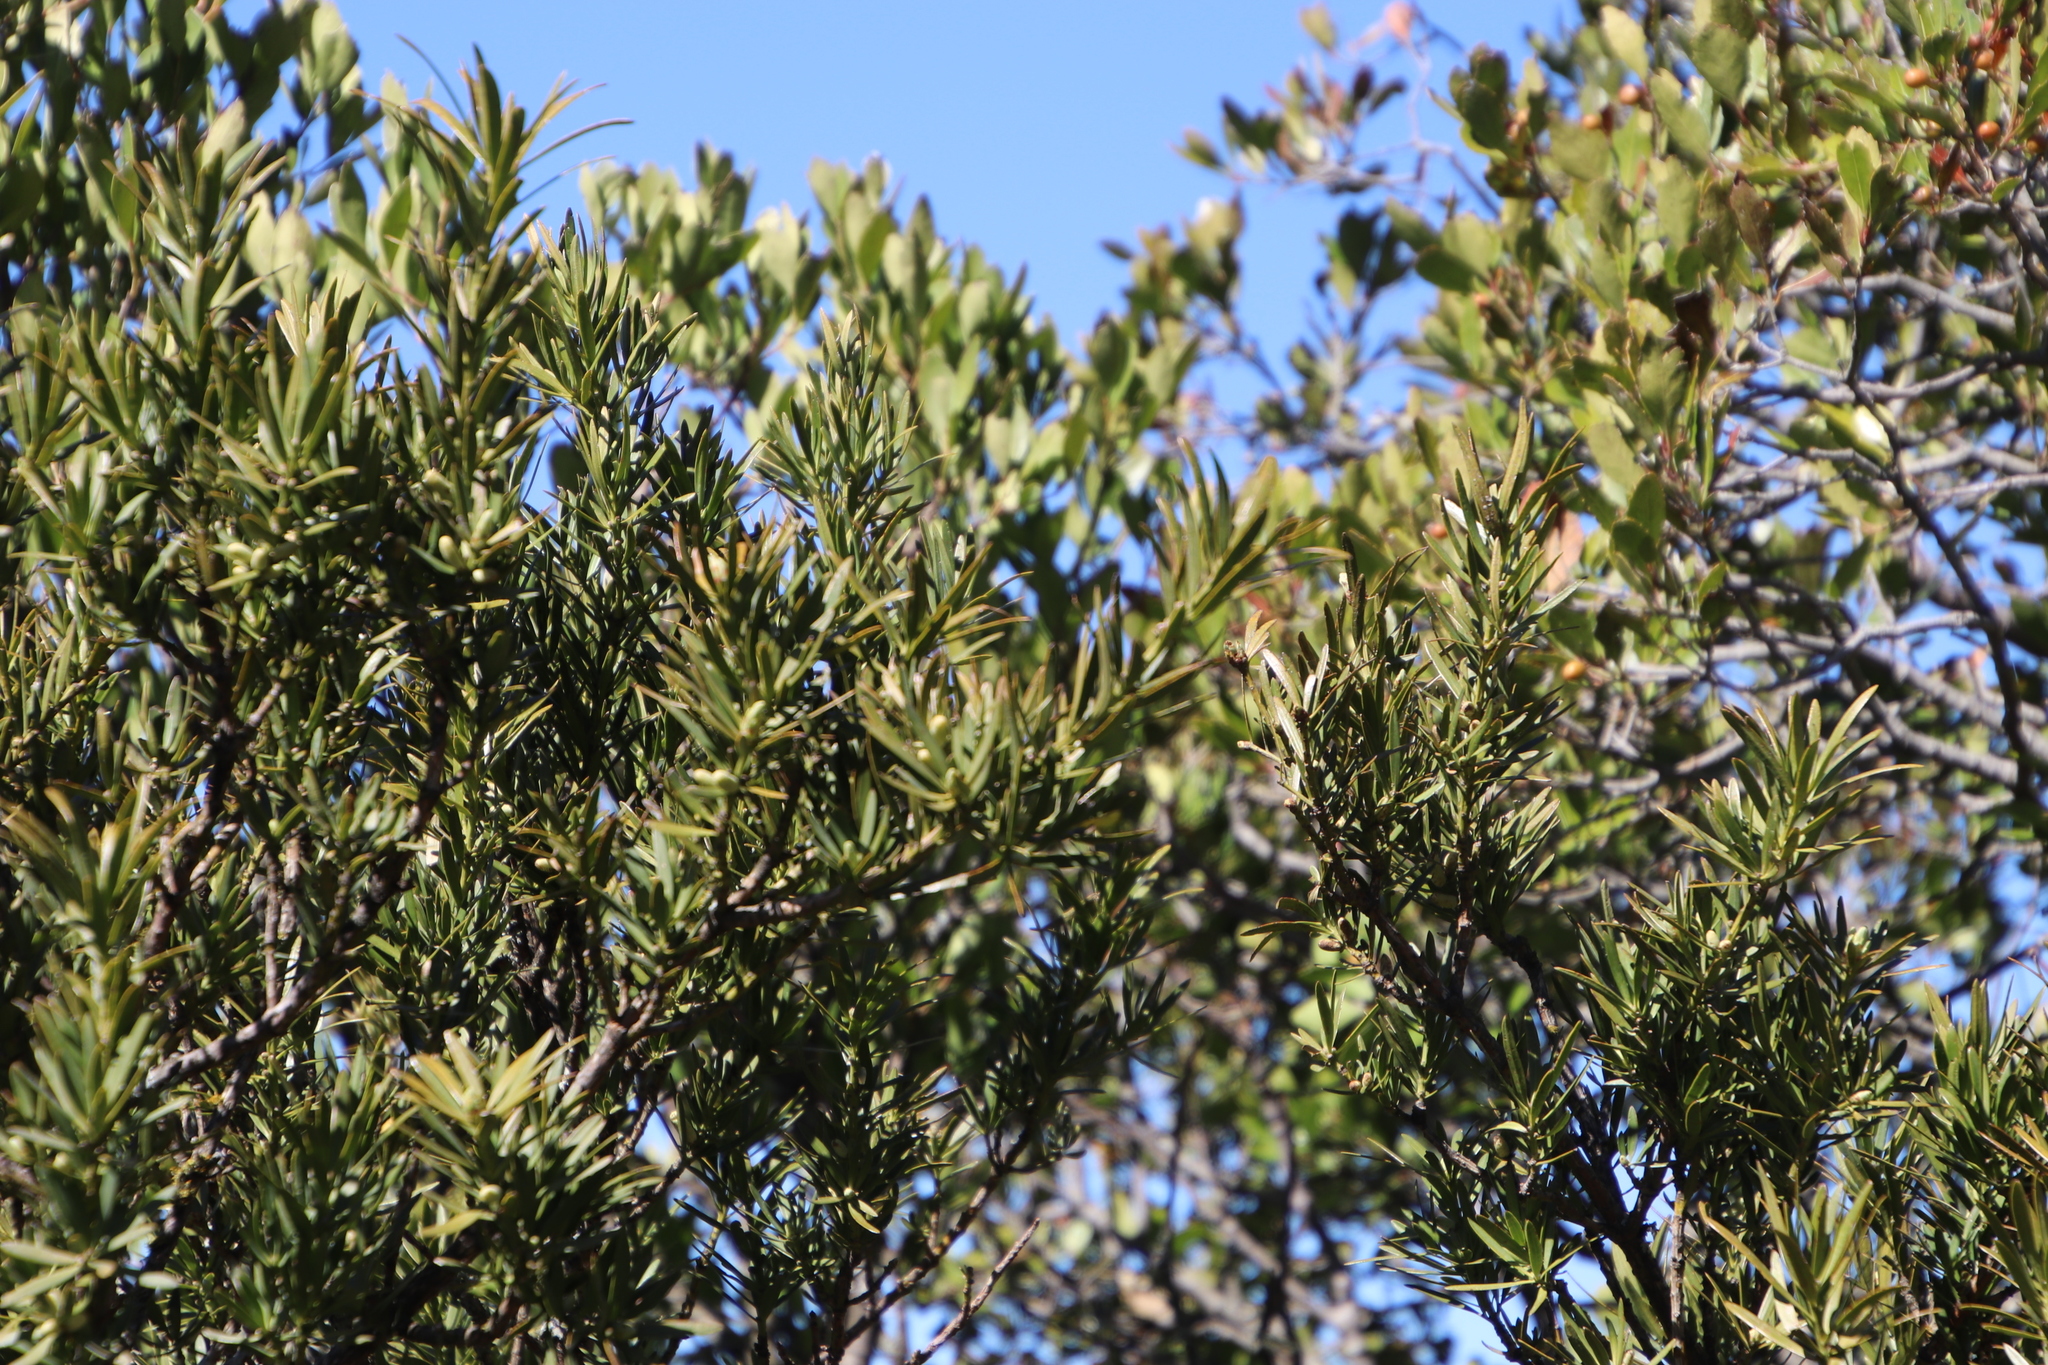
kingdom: Plantae
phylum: Tracheophyta
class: Pinopsida
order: Pinales
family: Podocarpaceae
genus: Podocarpus
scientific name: Podocarpus elongatus
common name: Breede river yellowwood
